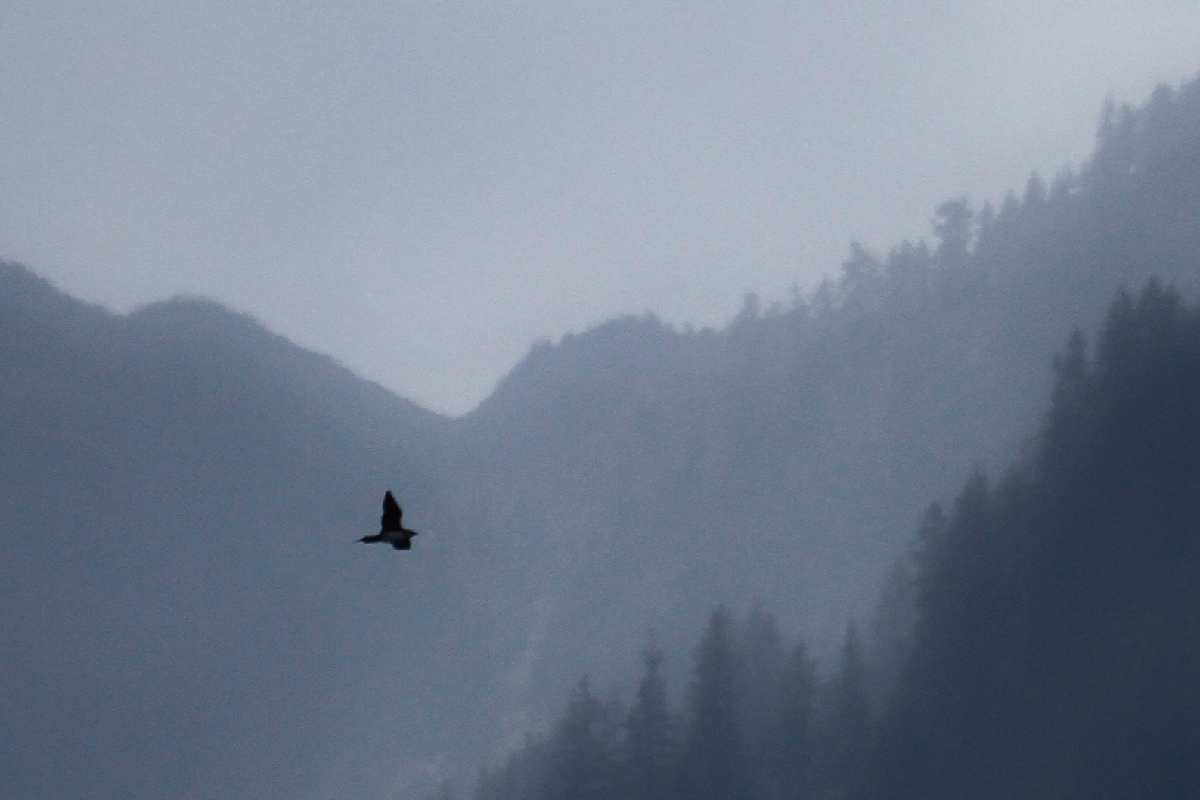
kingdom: Animalia
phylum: Chordata
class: Aves
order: Charadriiformes
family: Stercorariidae
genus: Stercorarius
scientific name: Stercorarius parasiticus
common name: Parasitic jaeger
